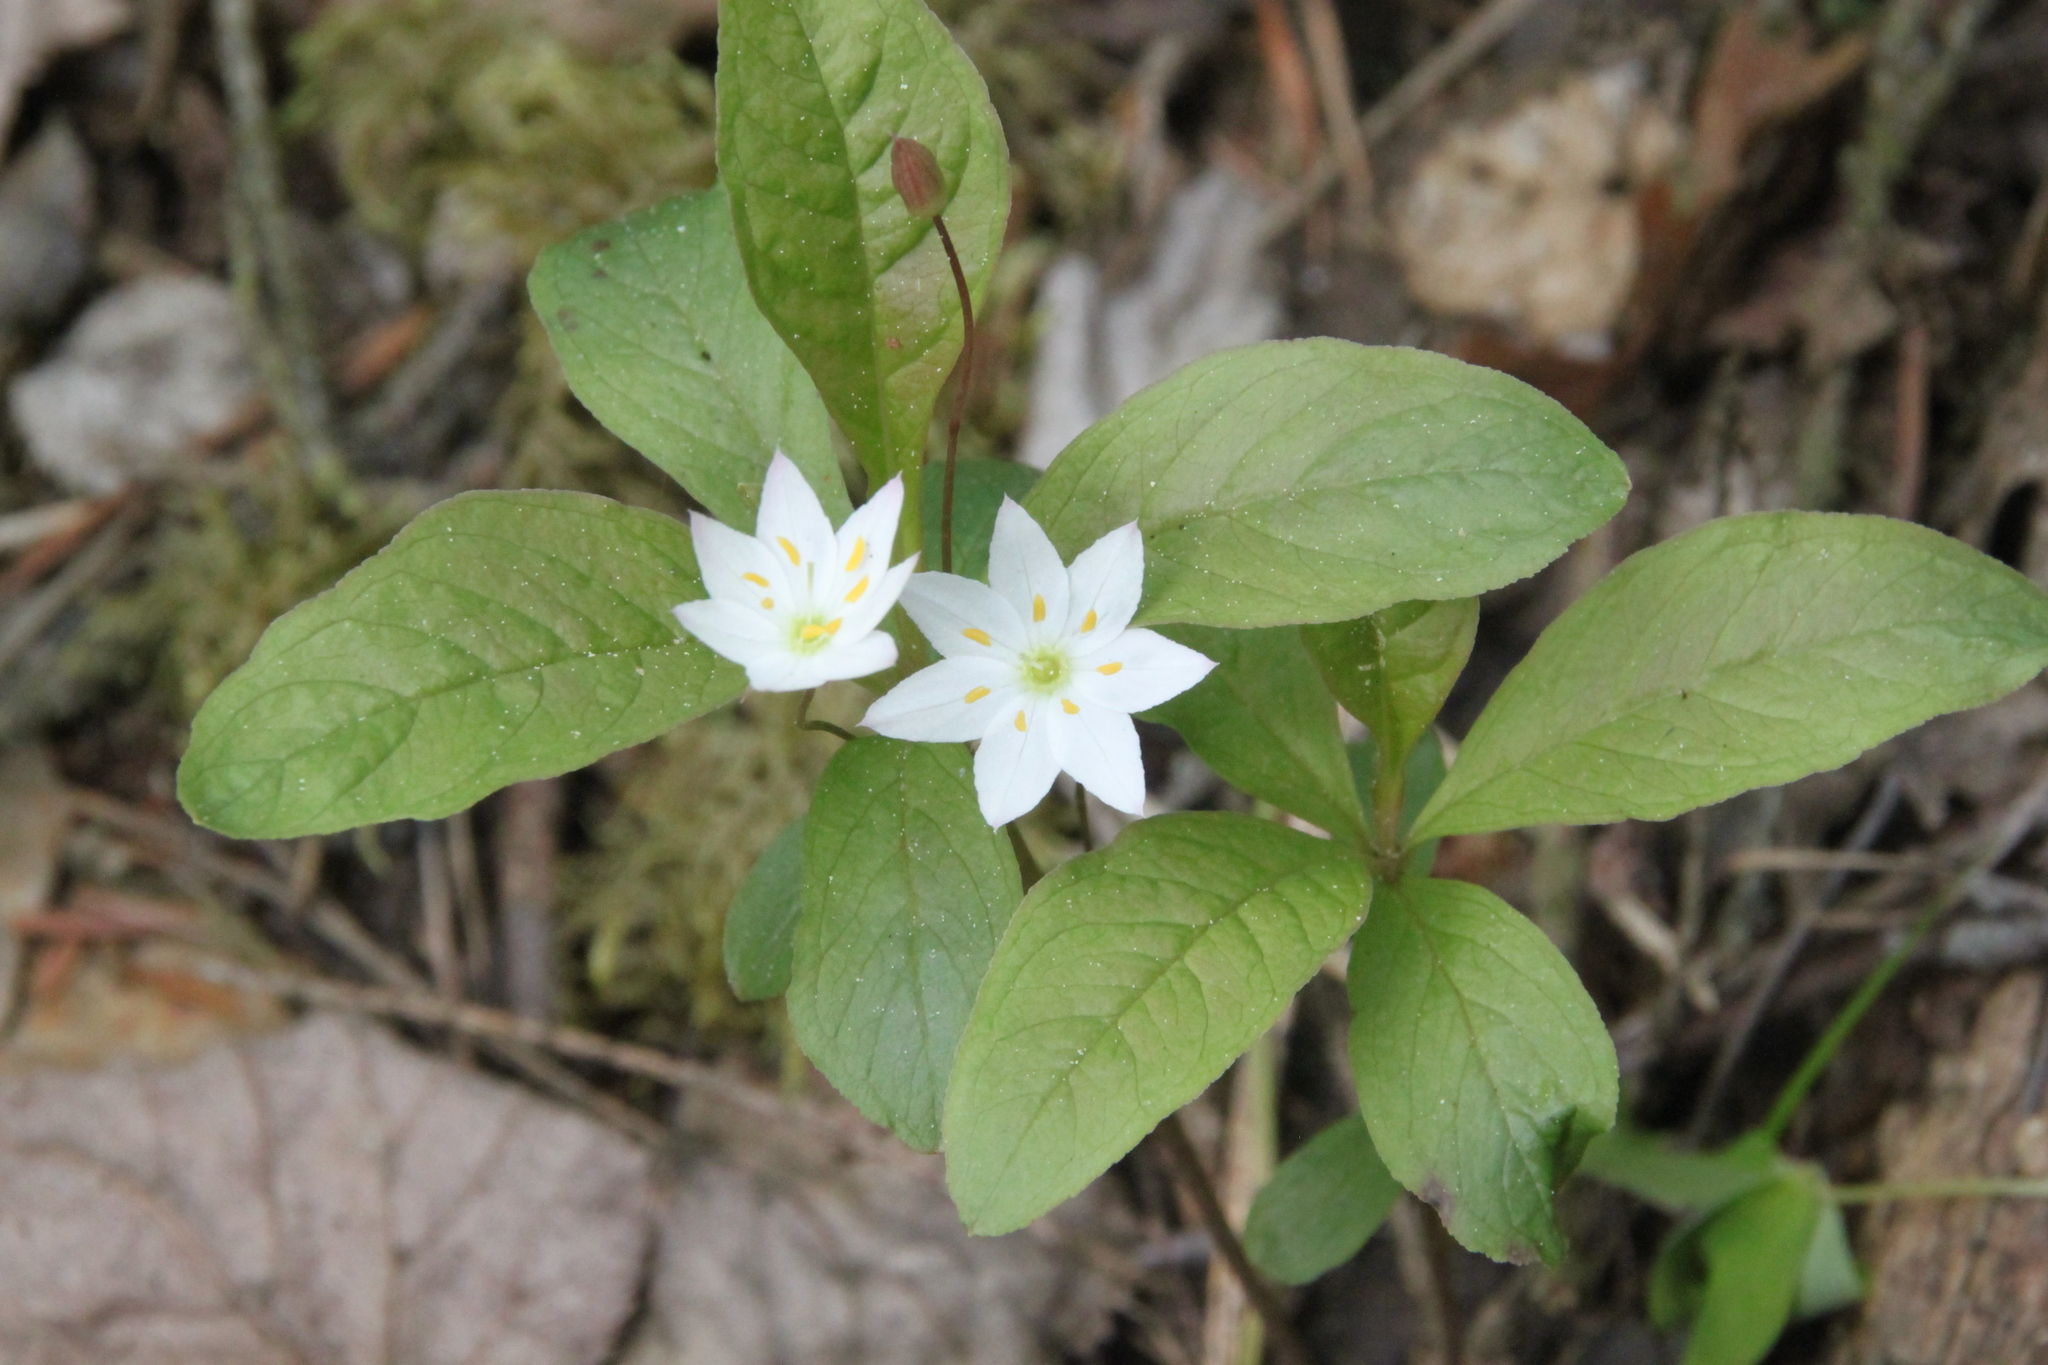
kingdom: Plantae
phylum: Tracheophyta
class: Magnoliopsida
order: Ericales
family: Primulaceae
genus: Lysimachia
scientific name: Lysimachia europaea
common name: Arctic starflower
